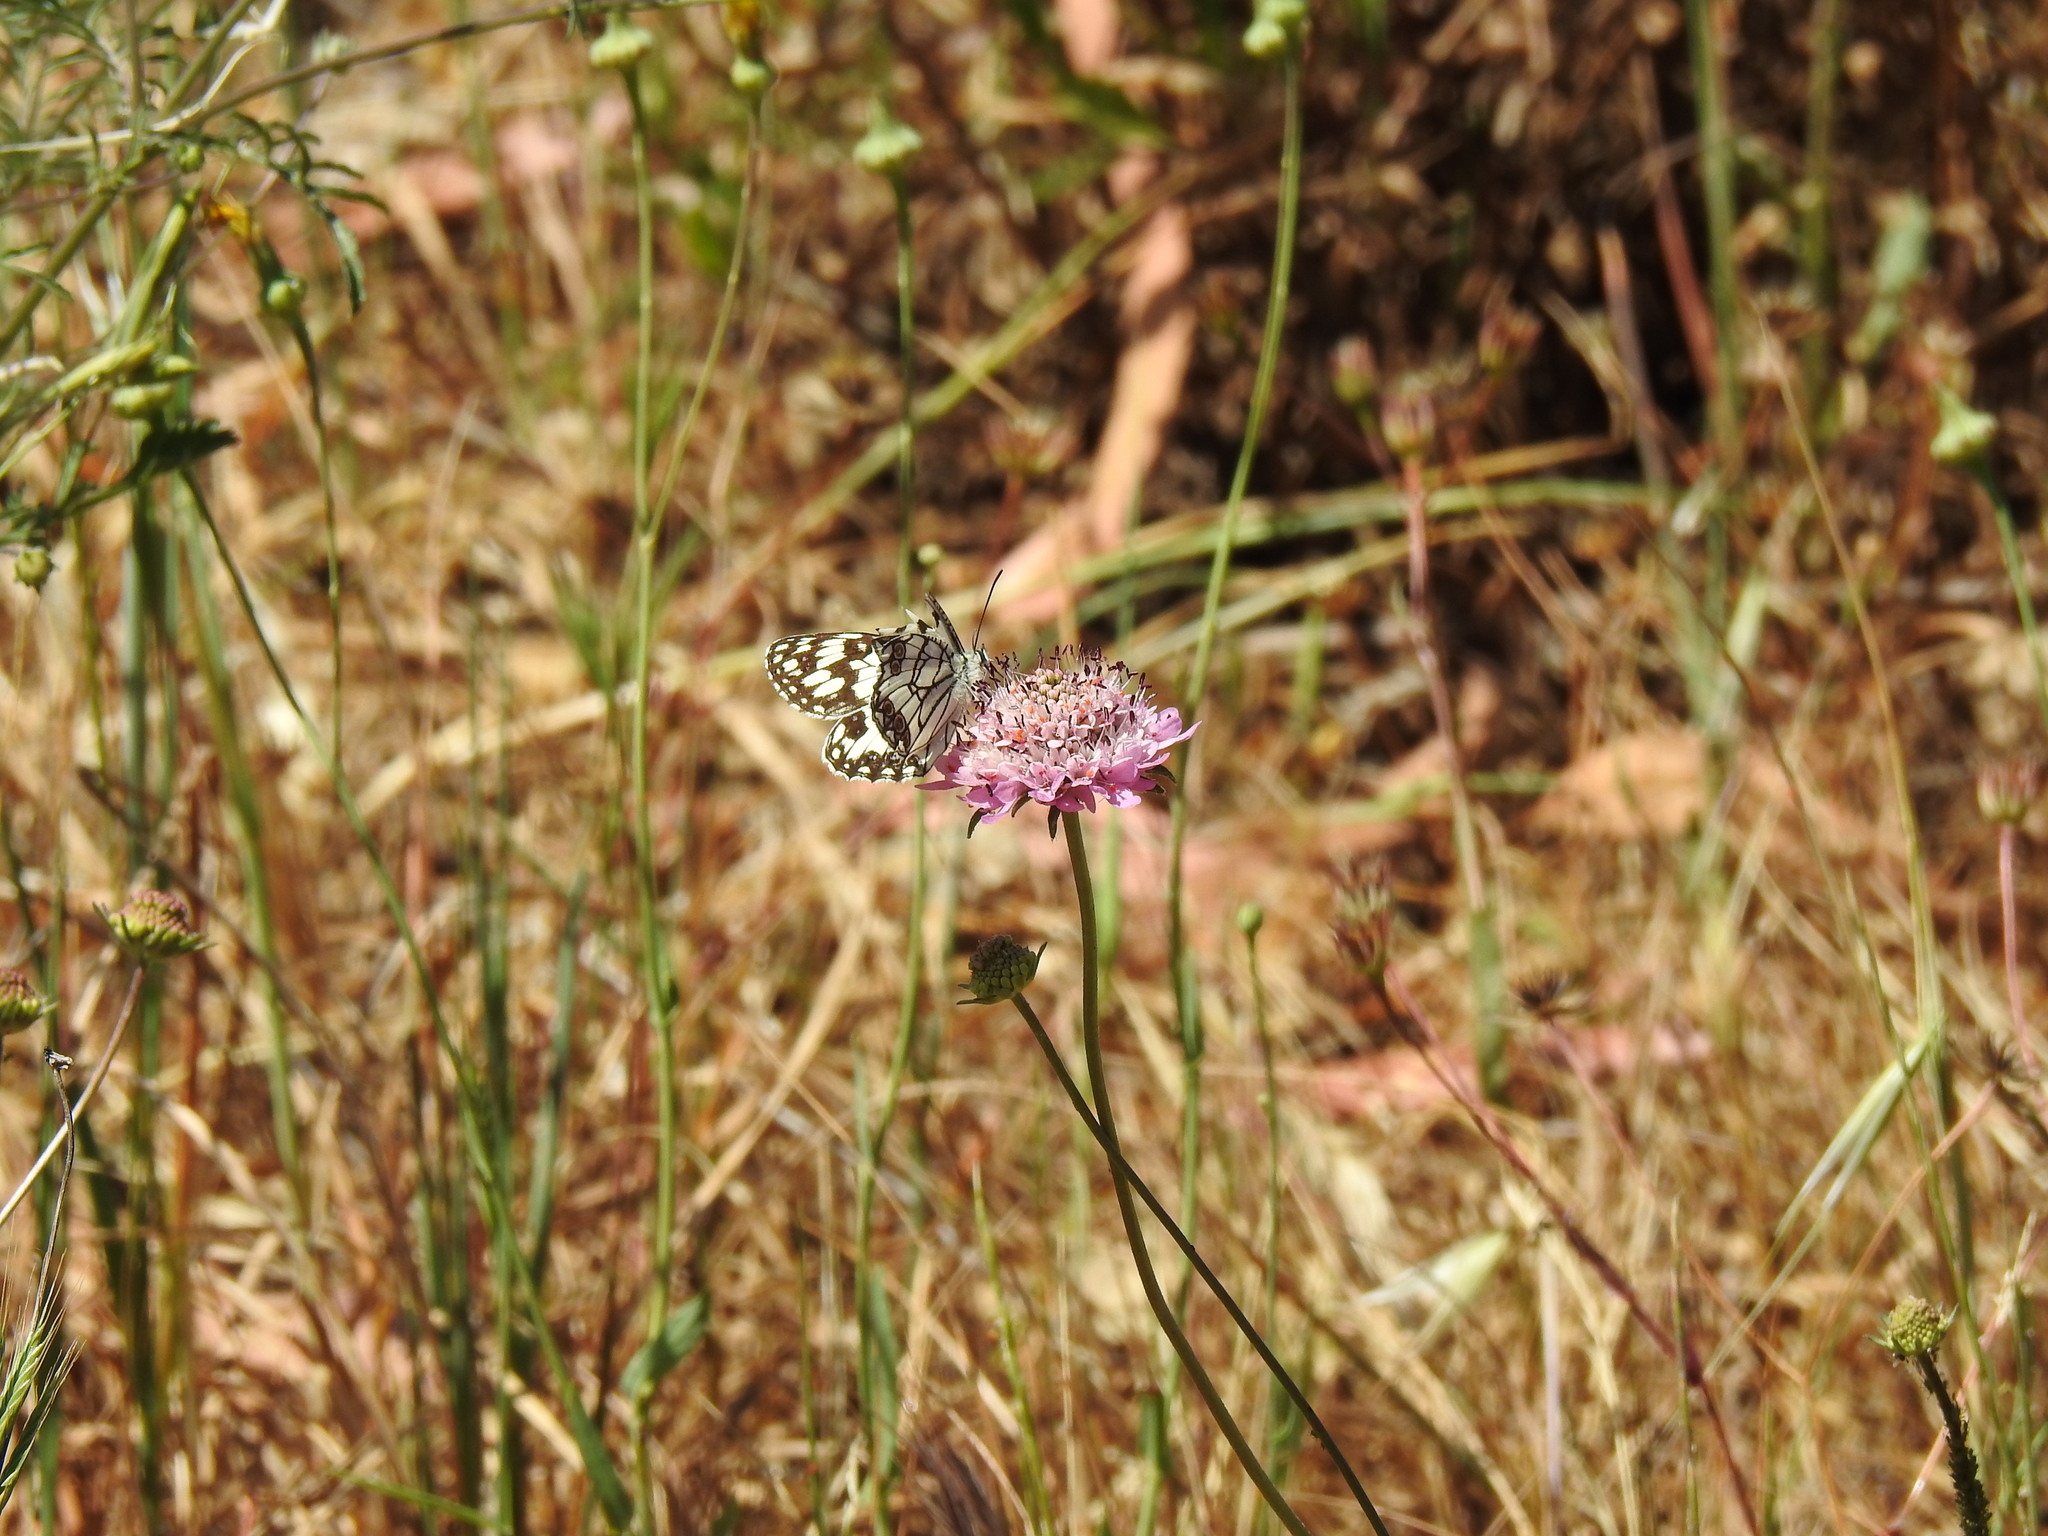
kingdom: Animalia
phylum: Arthropoda
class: Insecta
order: Lepidoptera
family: Nymphalidae
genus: Melanargia
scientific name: Melanargia ines
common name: Spanish marbled white
